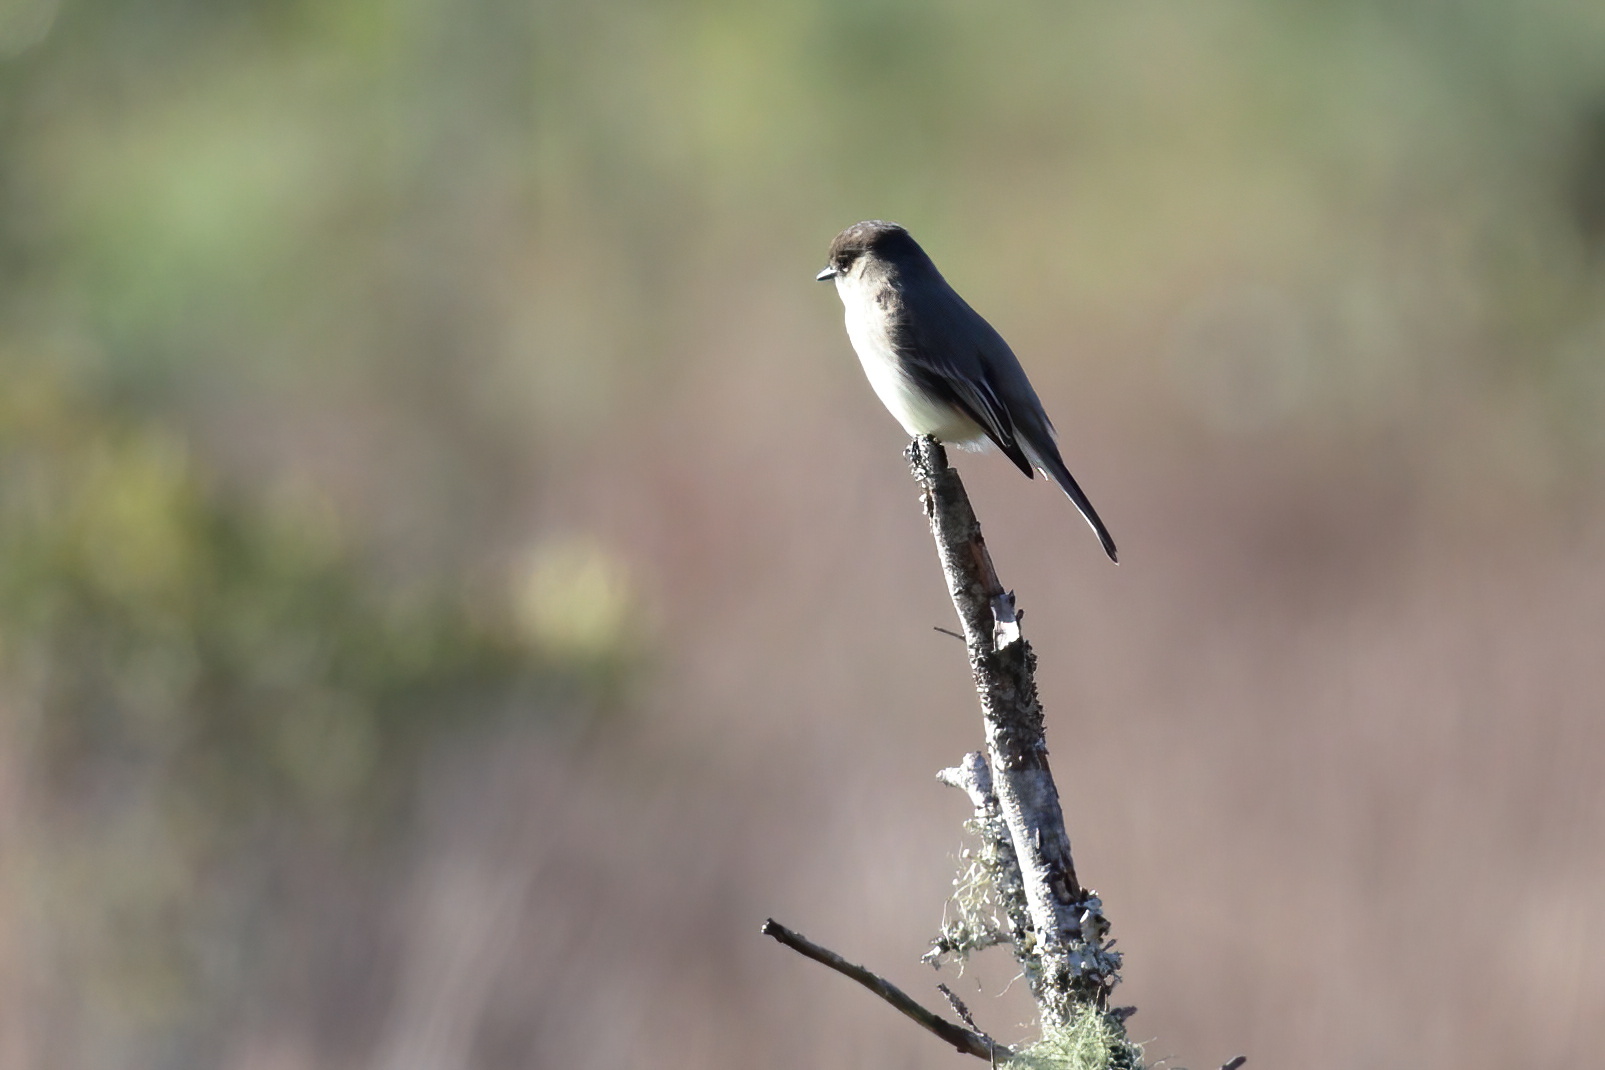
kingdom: Animalia
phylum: Chordata
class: Aves
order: Passeriformes
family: Tyrannidae
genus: Sayornis
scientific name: Sayornis phoebe
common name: Eastern phoebe
